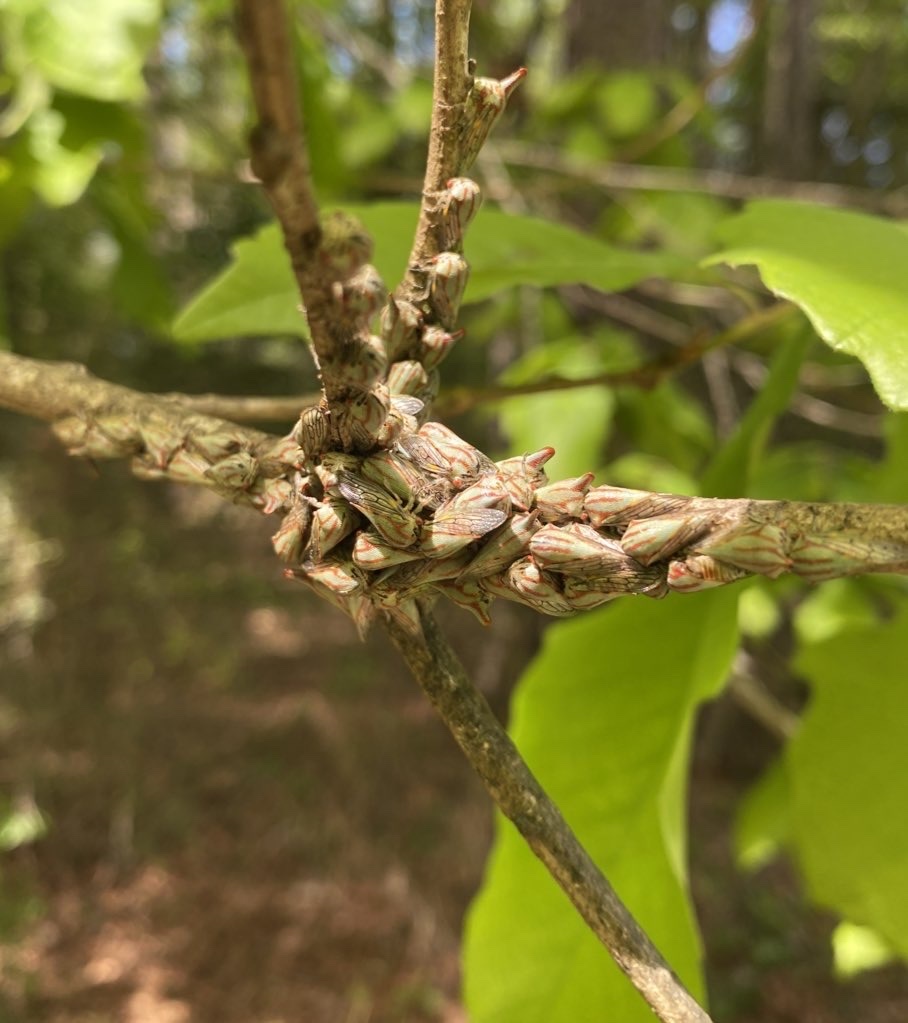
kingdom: Animalia
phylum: Arthropoda
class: Insecta
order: Hemiptera
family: Membracidae
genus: Platycotis
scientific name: Platycotis vittatus
